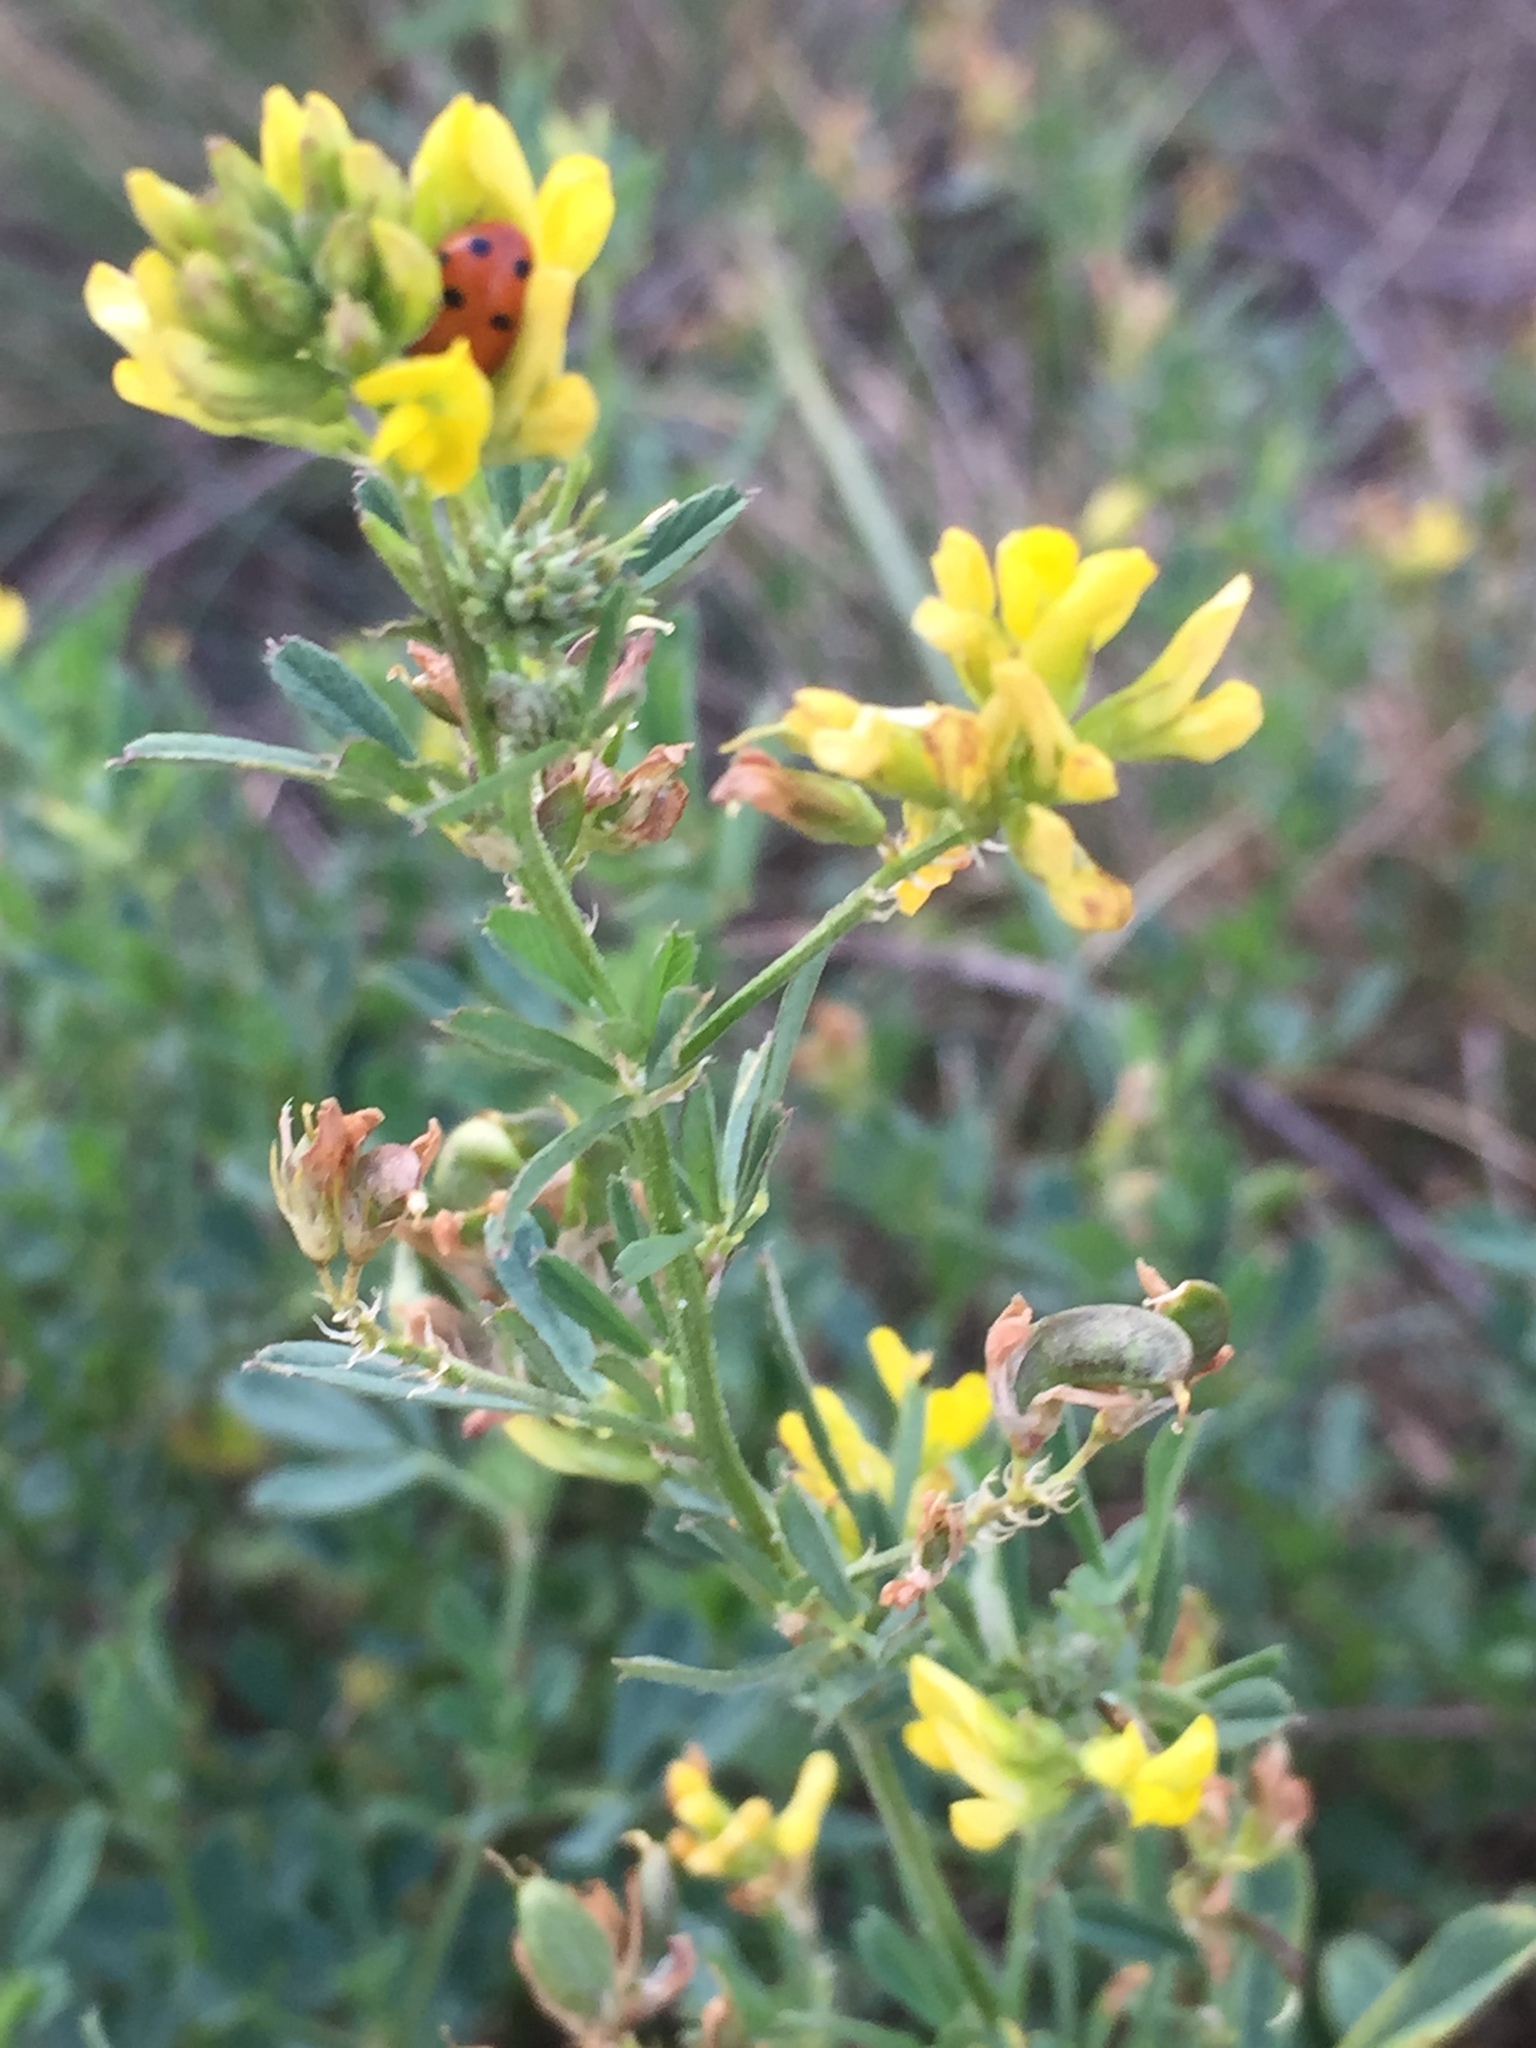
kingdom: Plantae
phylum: Tracheophyta
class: Magnoliopsida
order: Fabales
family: Fabaceae
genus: Medicago
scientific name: Medicago falcata
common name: Sickle medick
